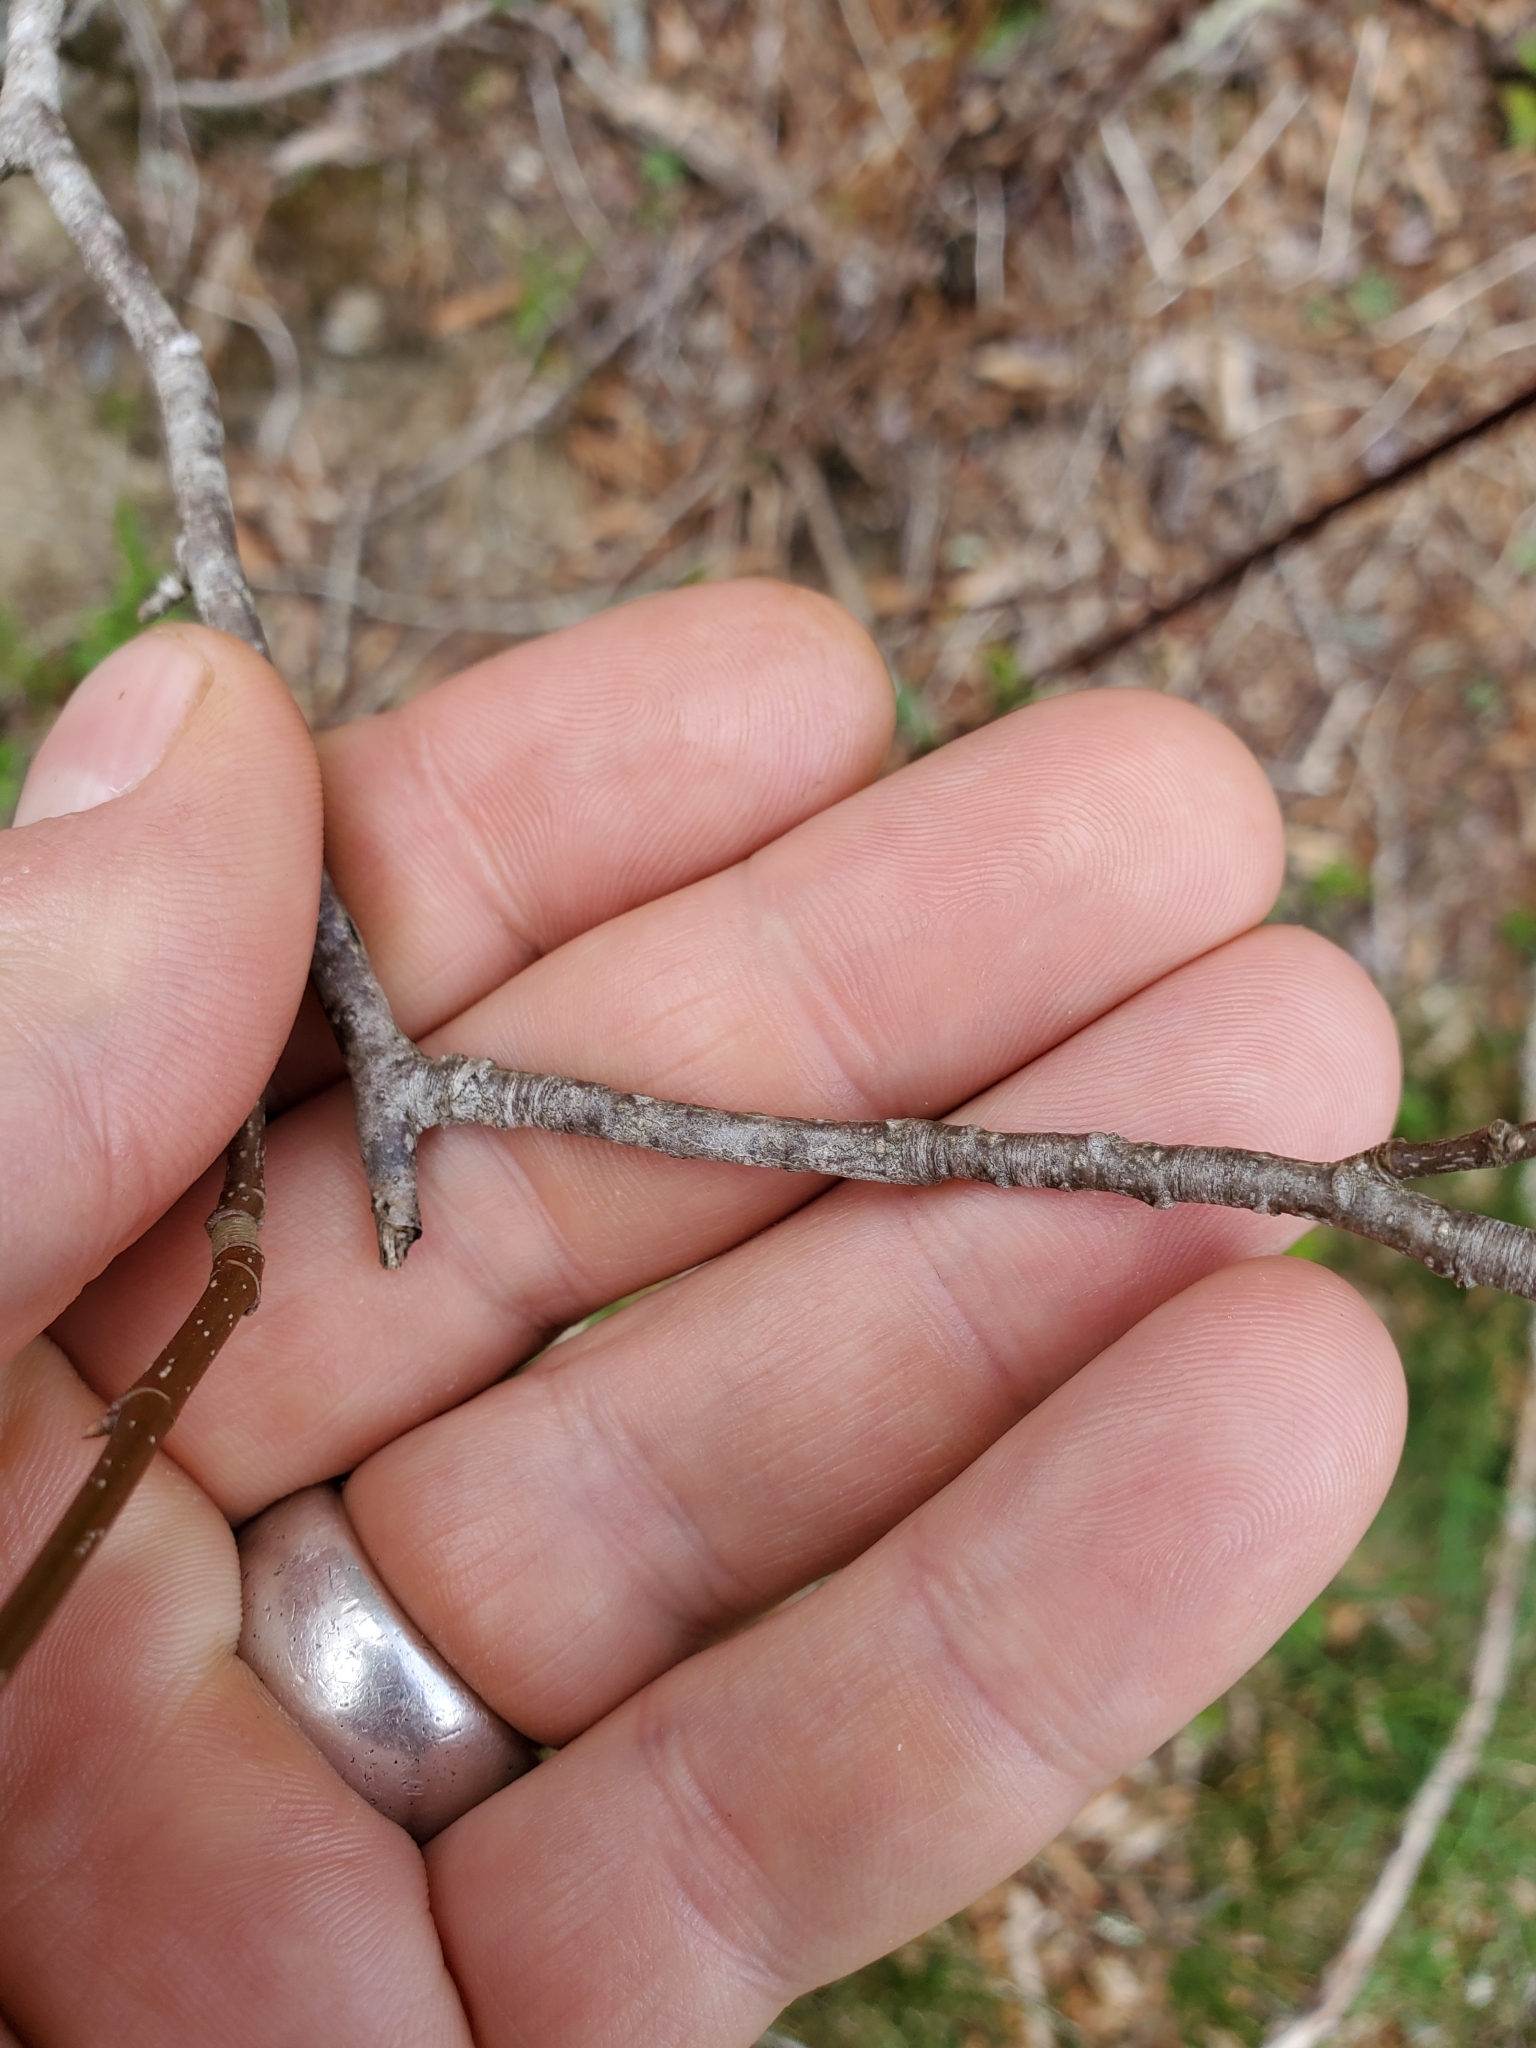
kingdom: Plantae
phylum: Tracheophyta
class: Magnoliopsida
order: Fagales
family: Fagaceae
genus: Fagus
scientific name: Fagus grandifolia
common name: American beech
